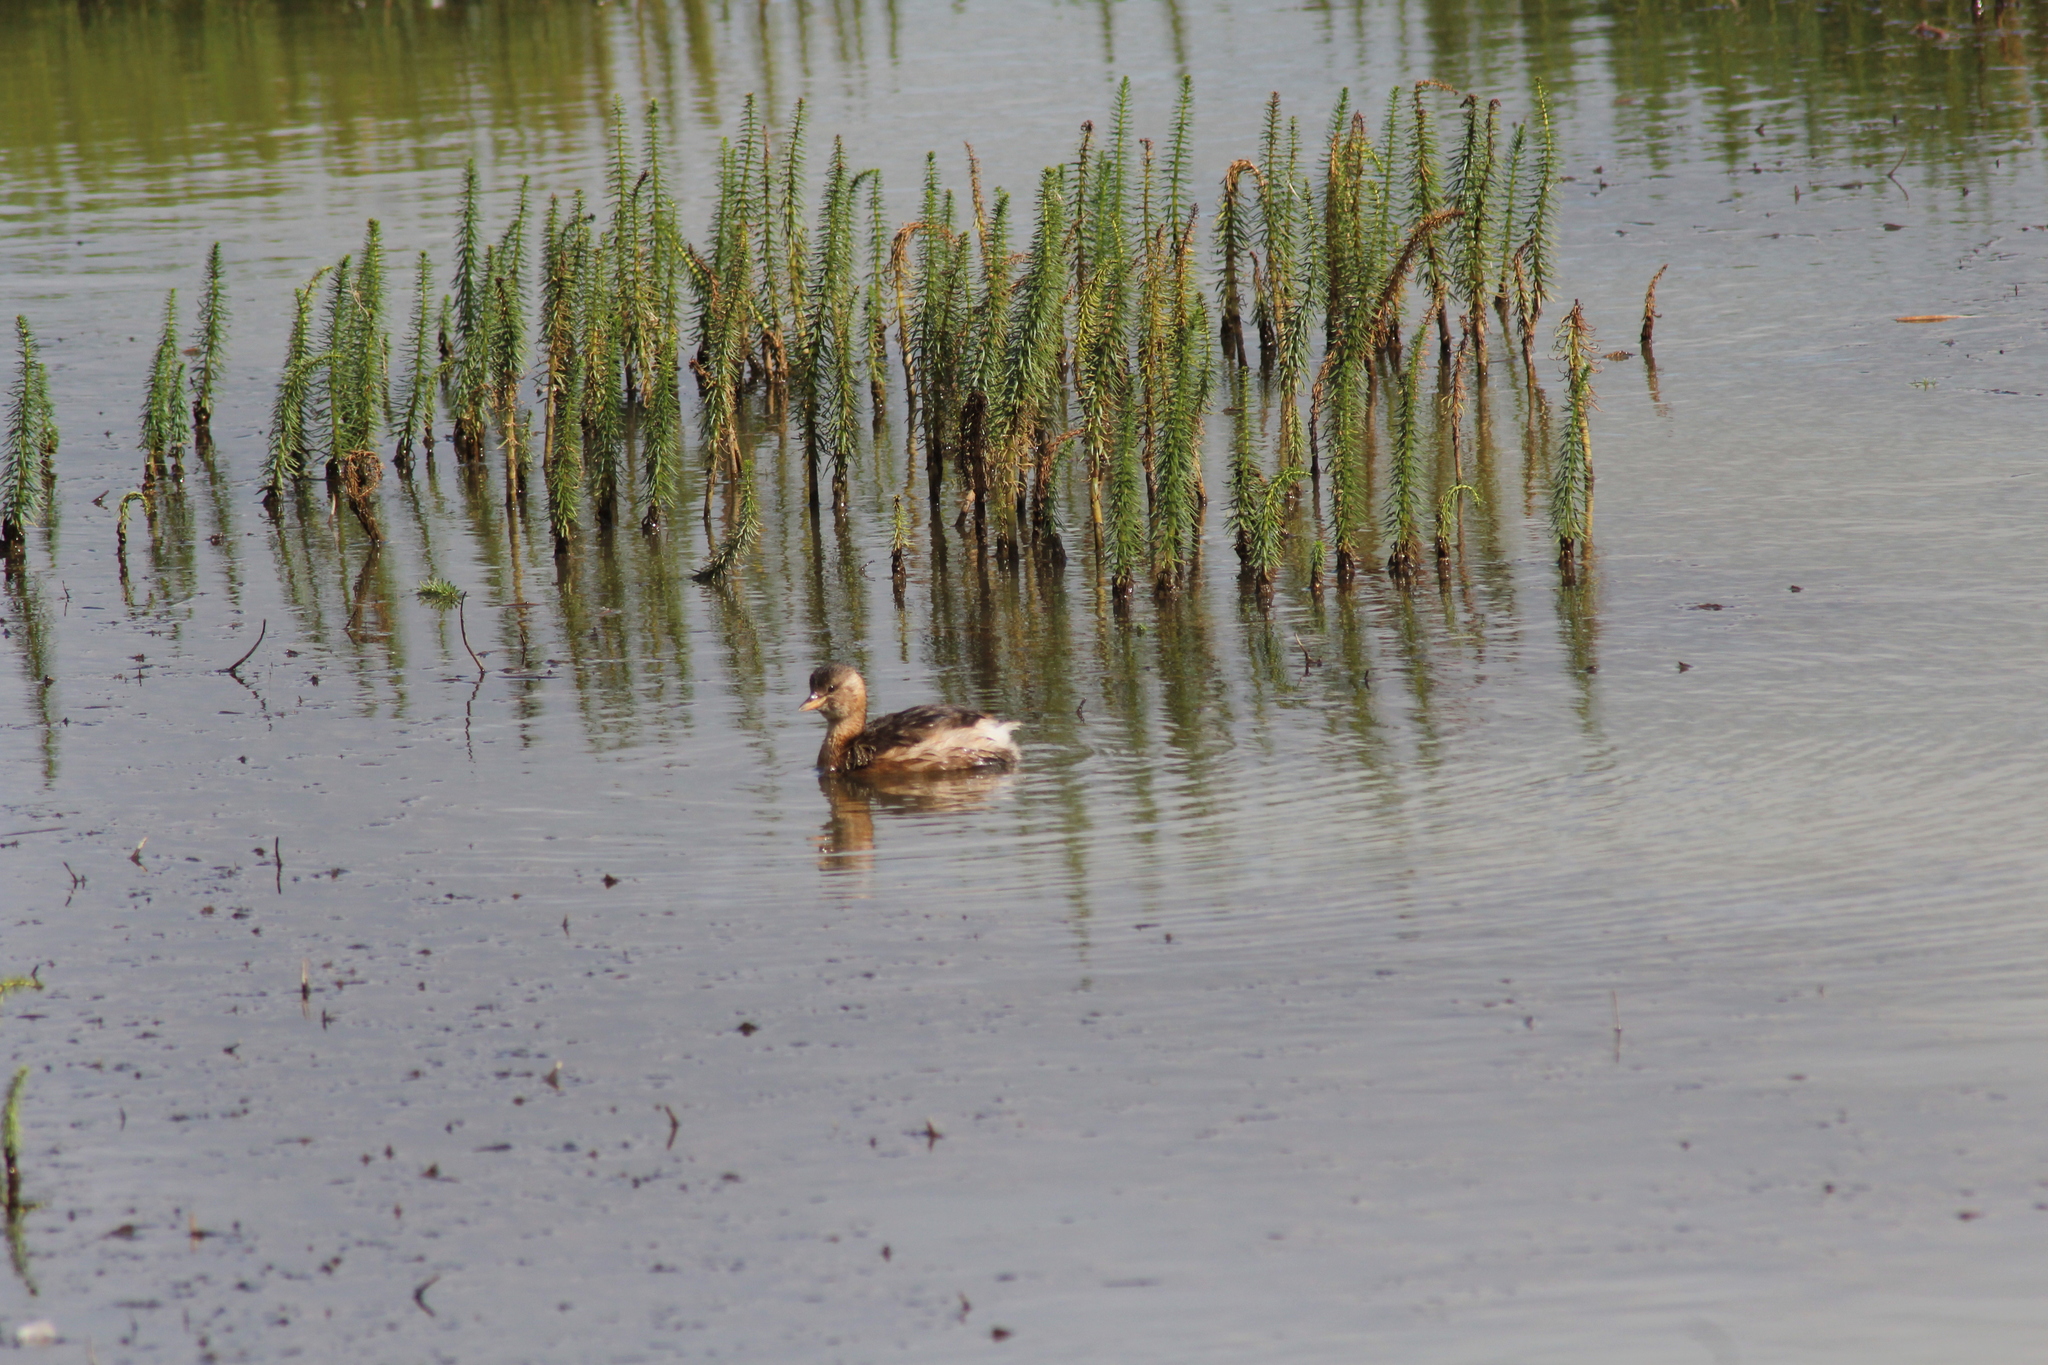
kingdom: Animalia
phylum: Chordata
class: Aves
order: Podicipediformes
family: Podicipedidae
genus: Tachybaptus
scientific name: Tachybaptus ruficollis
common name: Little grebe
